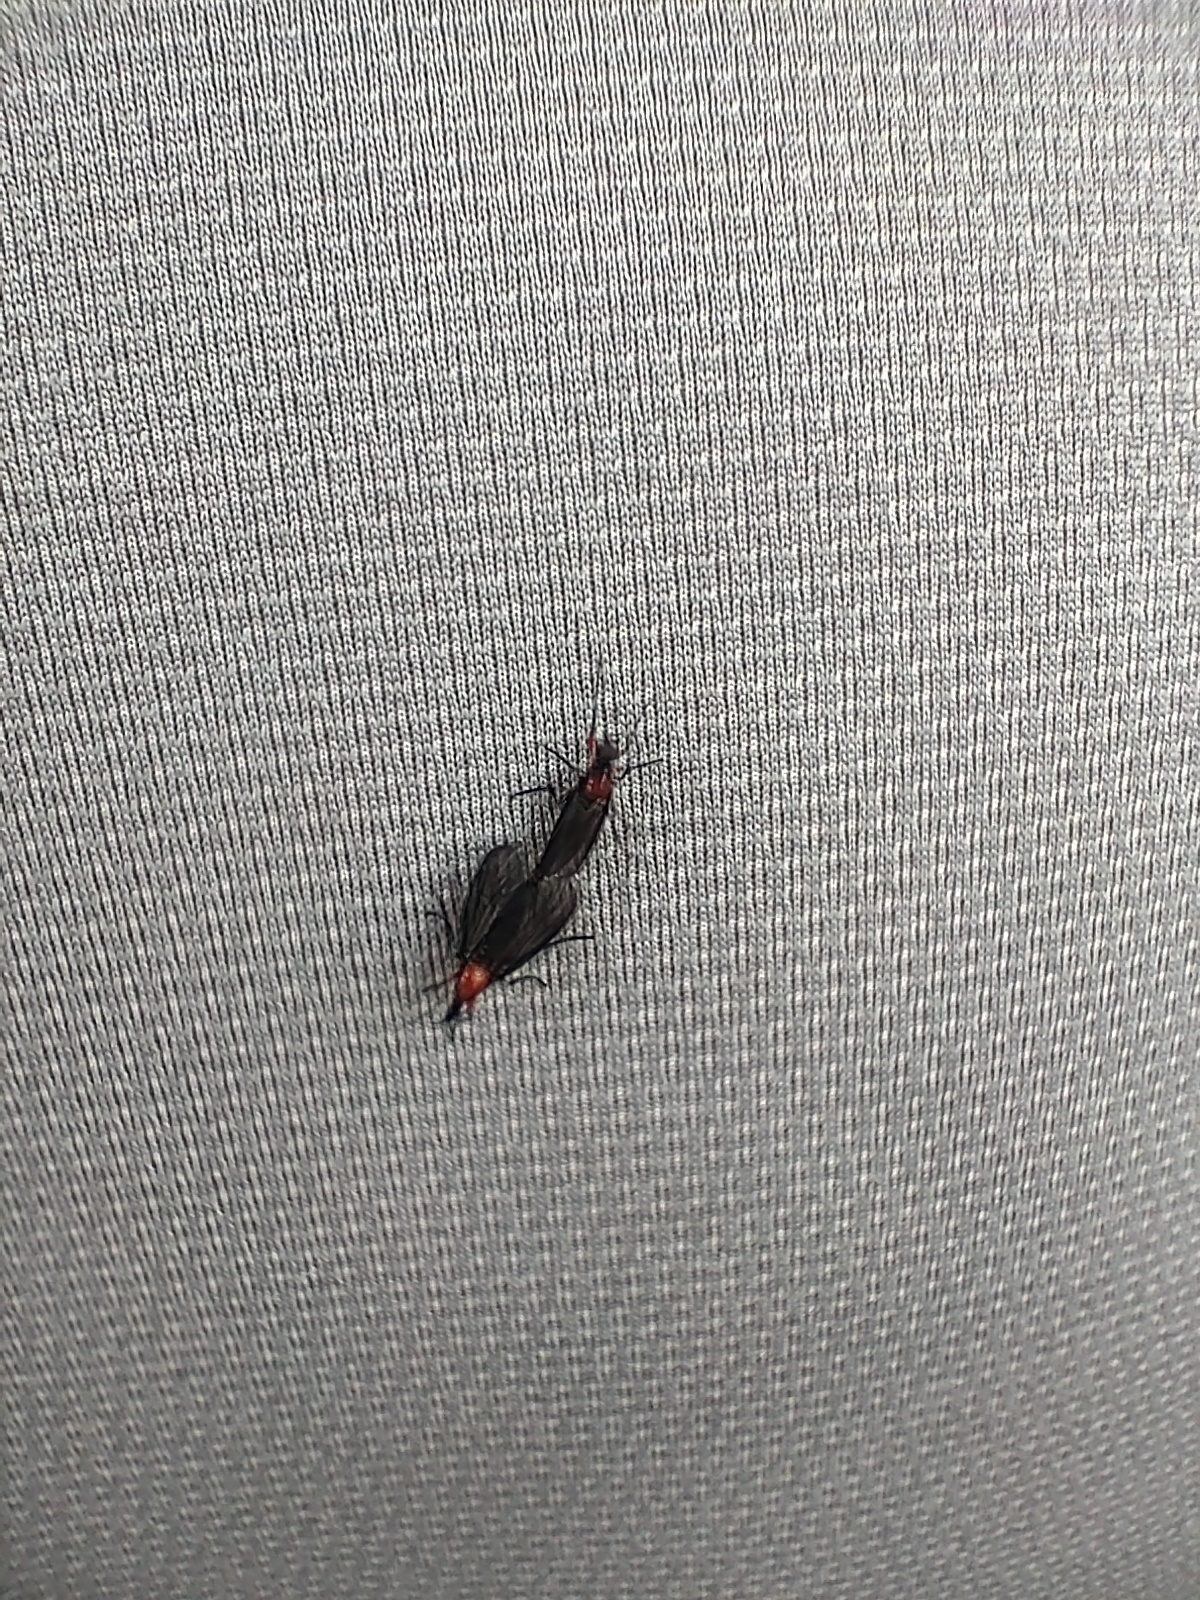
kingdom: Animalia
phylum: Arthropoda
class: Insecta
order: Diptera
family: Bibionidae
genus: Dilophus
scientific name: Dilophus spinipes
